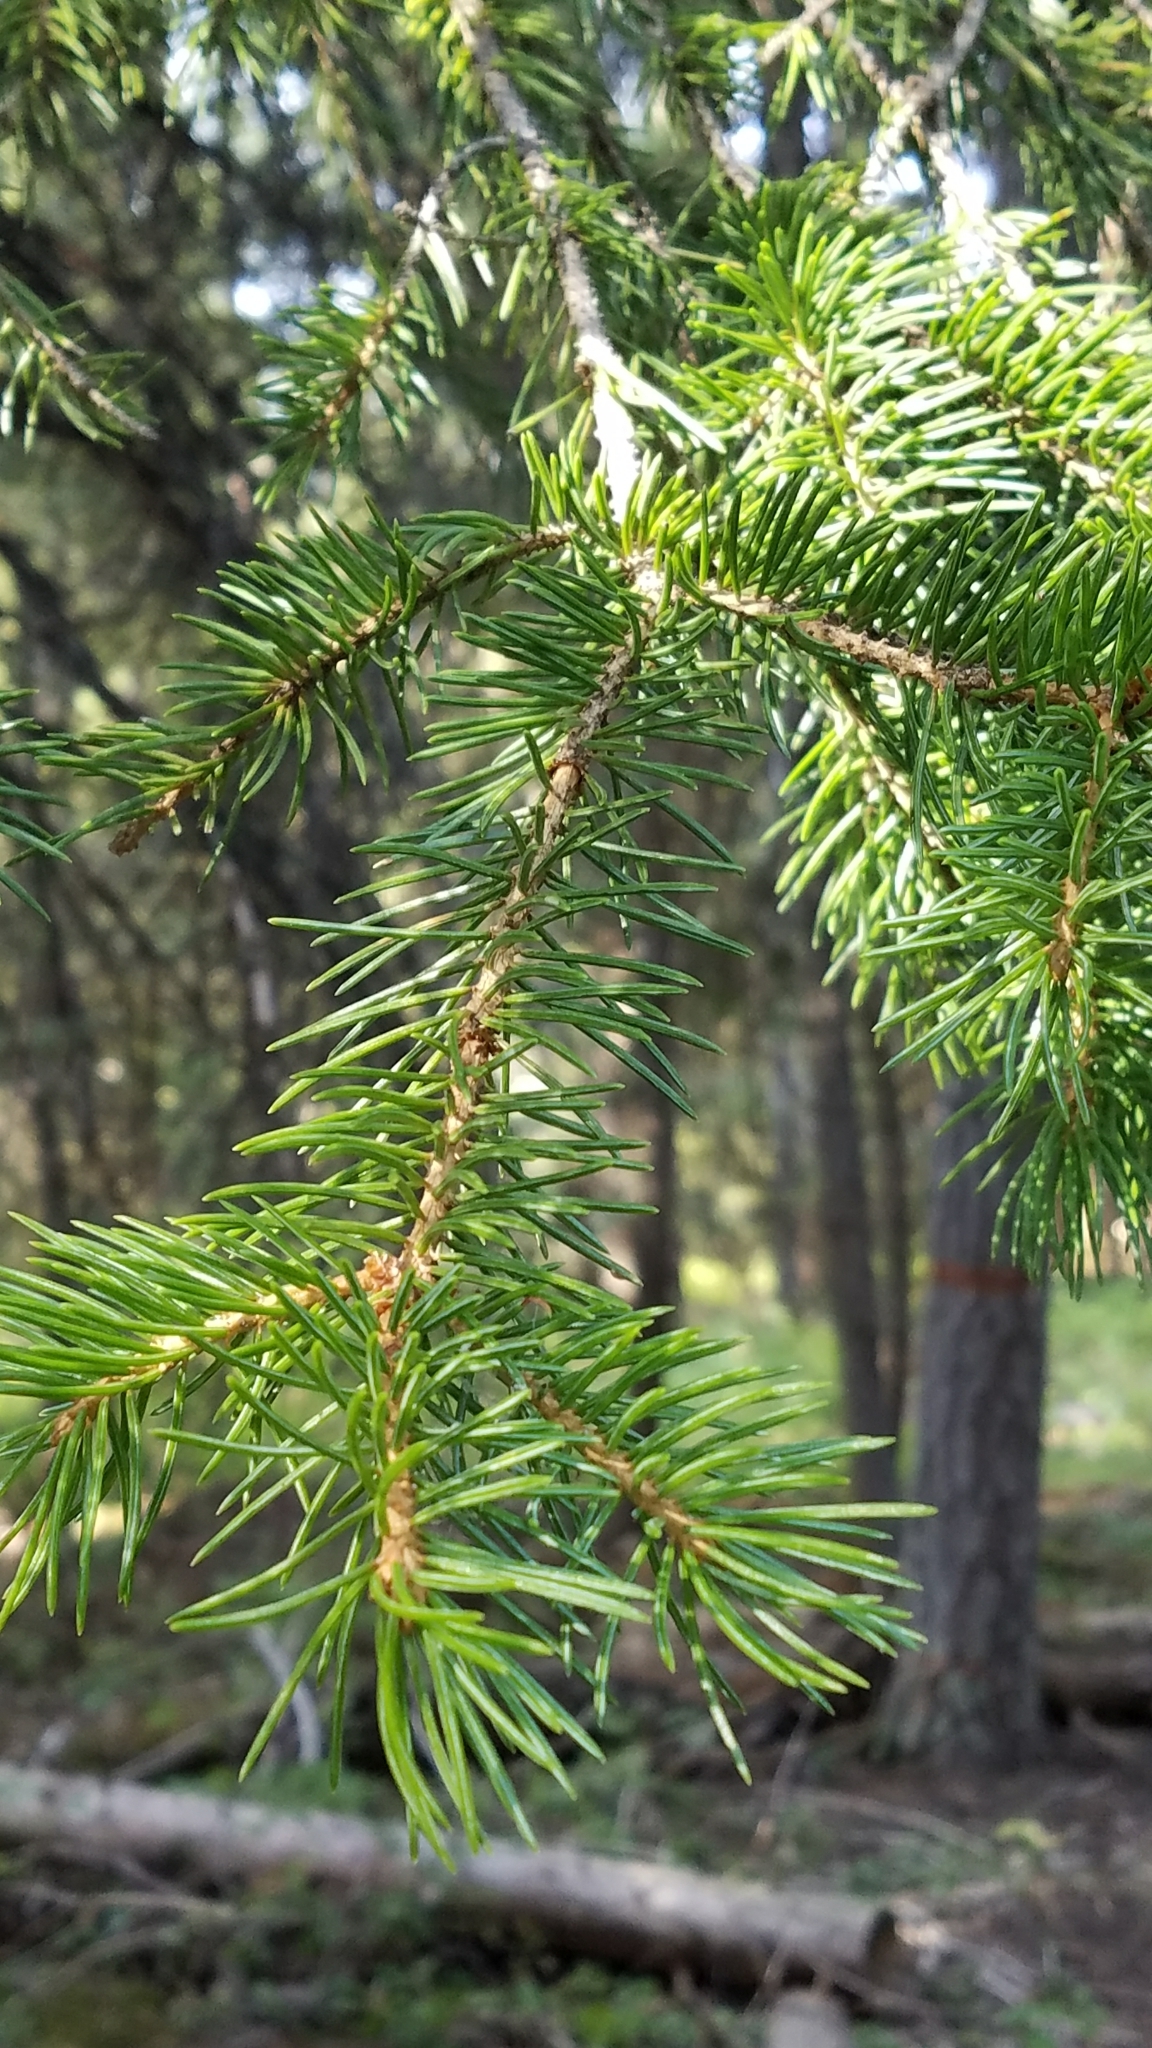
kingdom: Plantae
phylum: Tracheophyta
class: Pinopsida
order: Pinales
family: Pinaceae
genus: Picea
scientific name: Picea engelmannii
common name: Engelmann spruce
